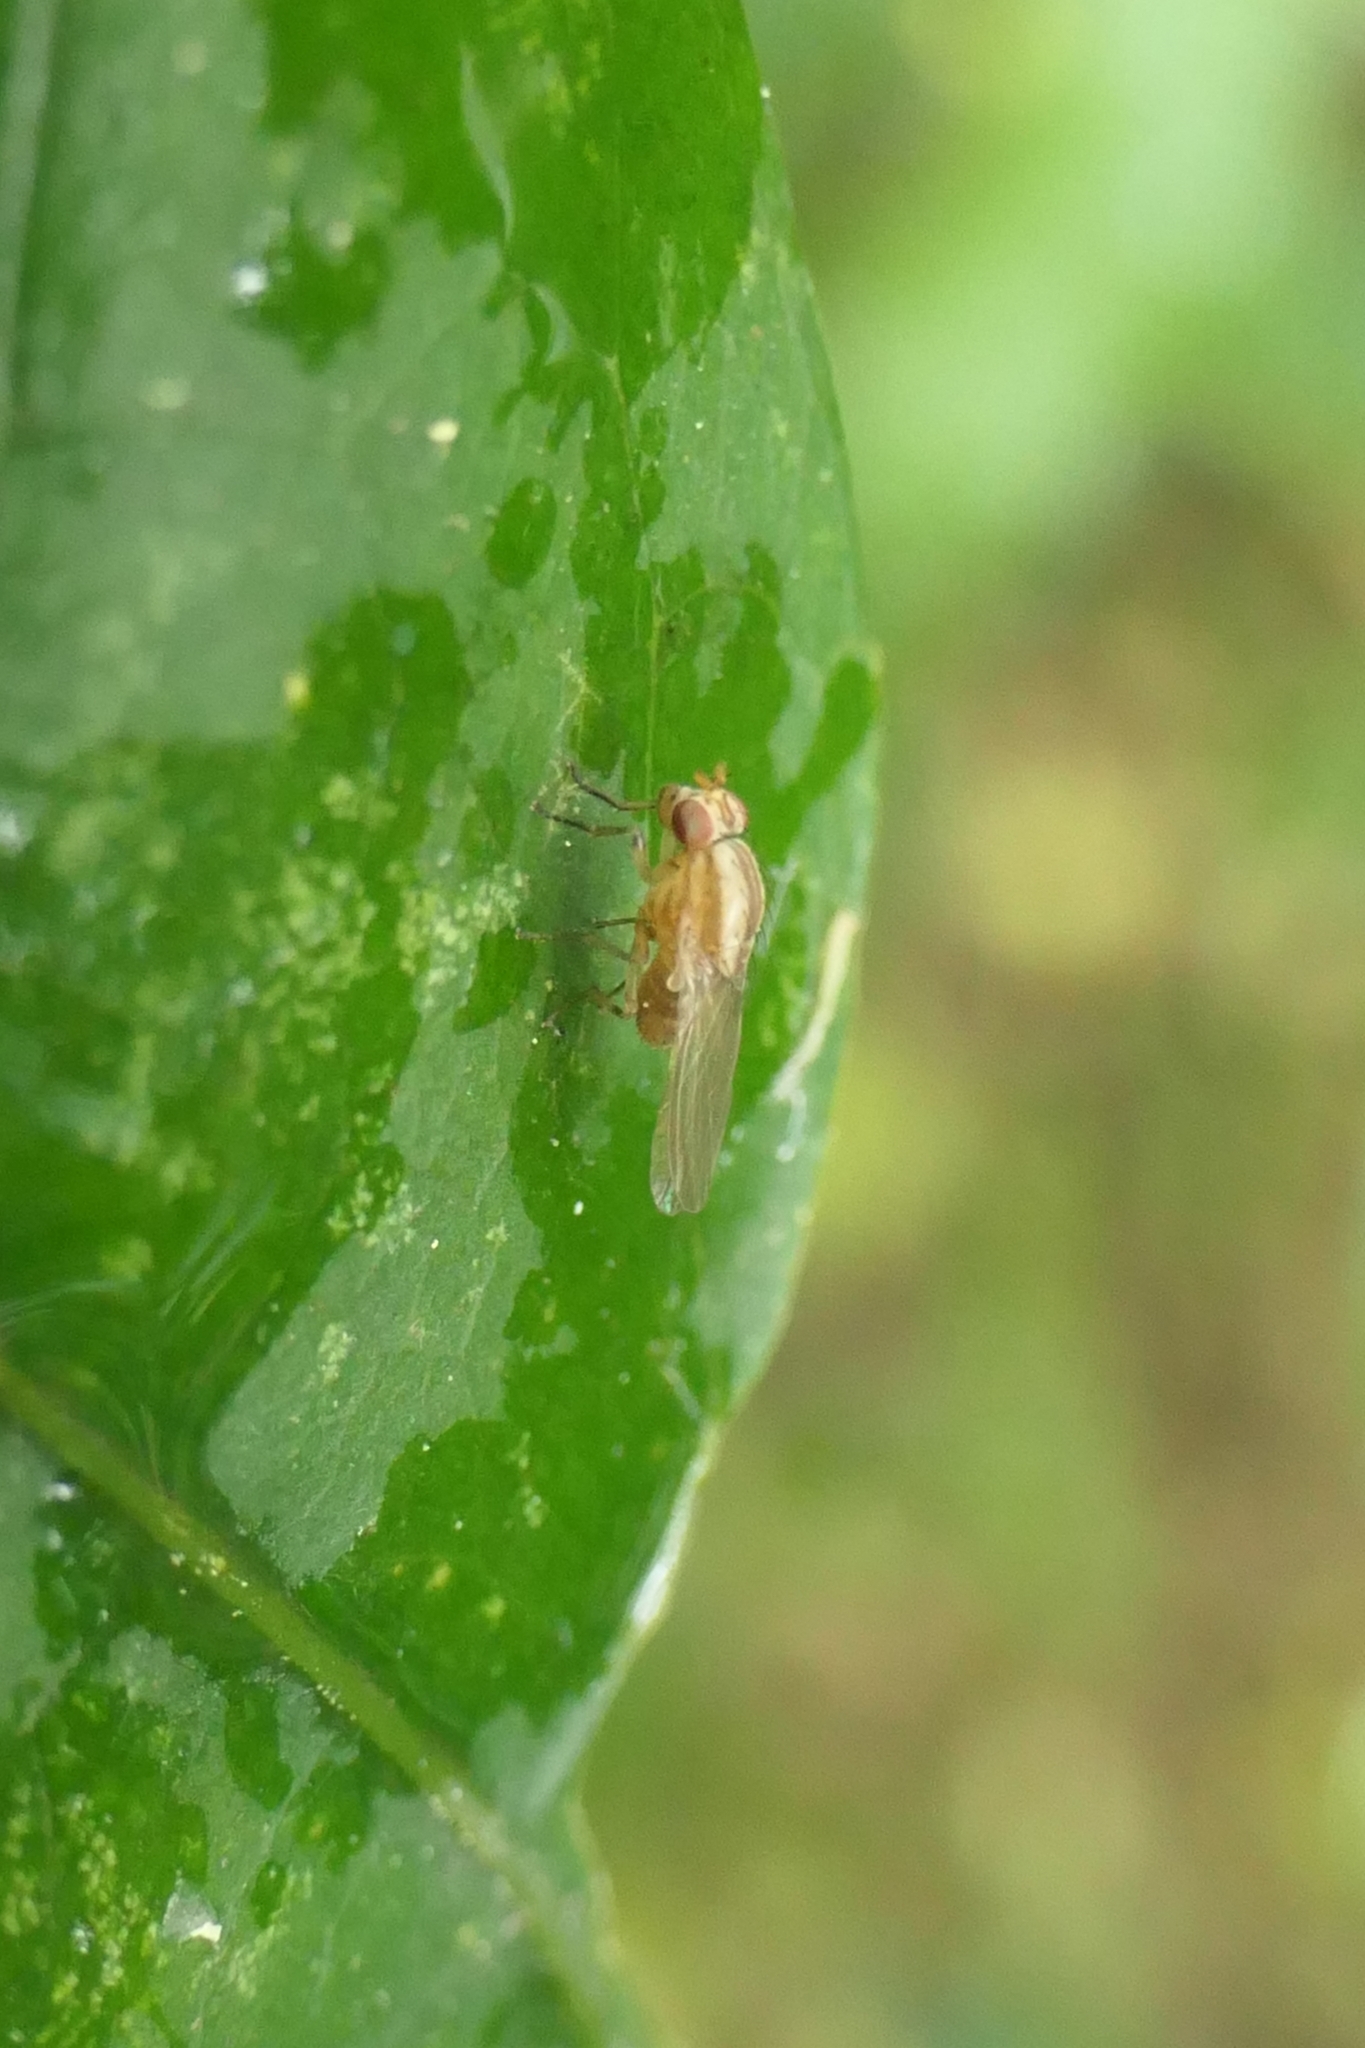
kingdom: Animalia
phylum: Arthropoda
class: Insecta
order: Diptera
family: Lauxaniidae
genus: Sapromyza
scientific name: Sapromyza neozelandica
